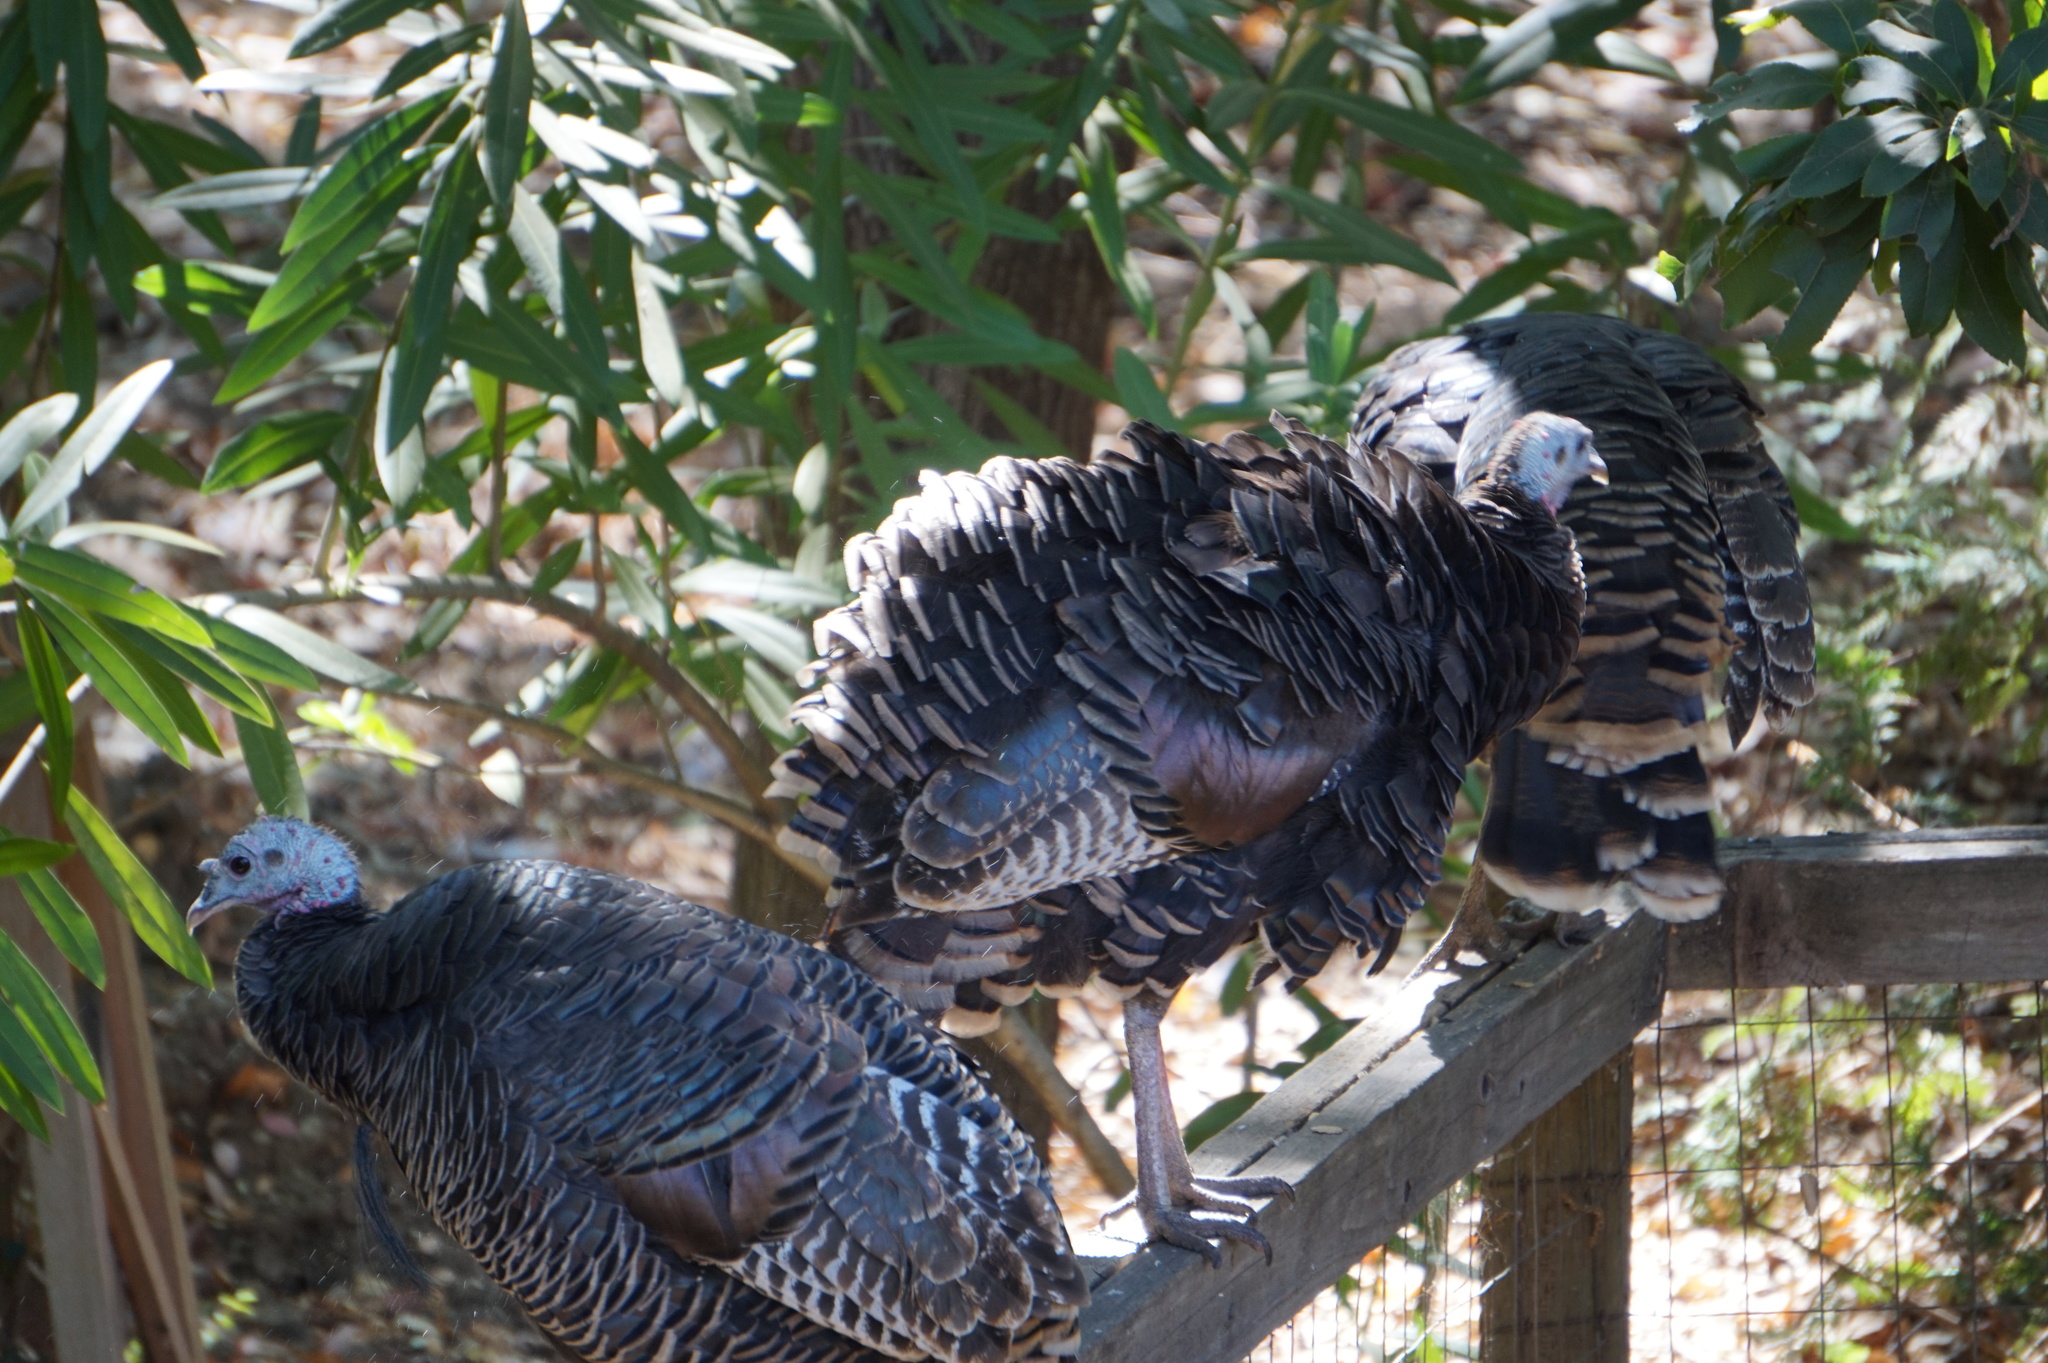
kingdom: Animalia
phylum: Chordata
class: Aves
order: Galliformes
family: Phasianidae
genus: Meleagris
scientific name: Meleagris gallopavo
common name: Wild turkey
